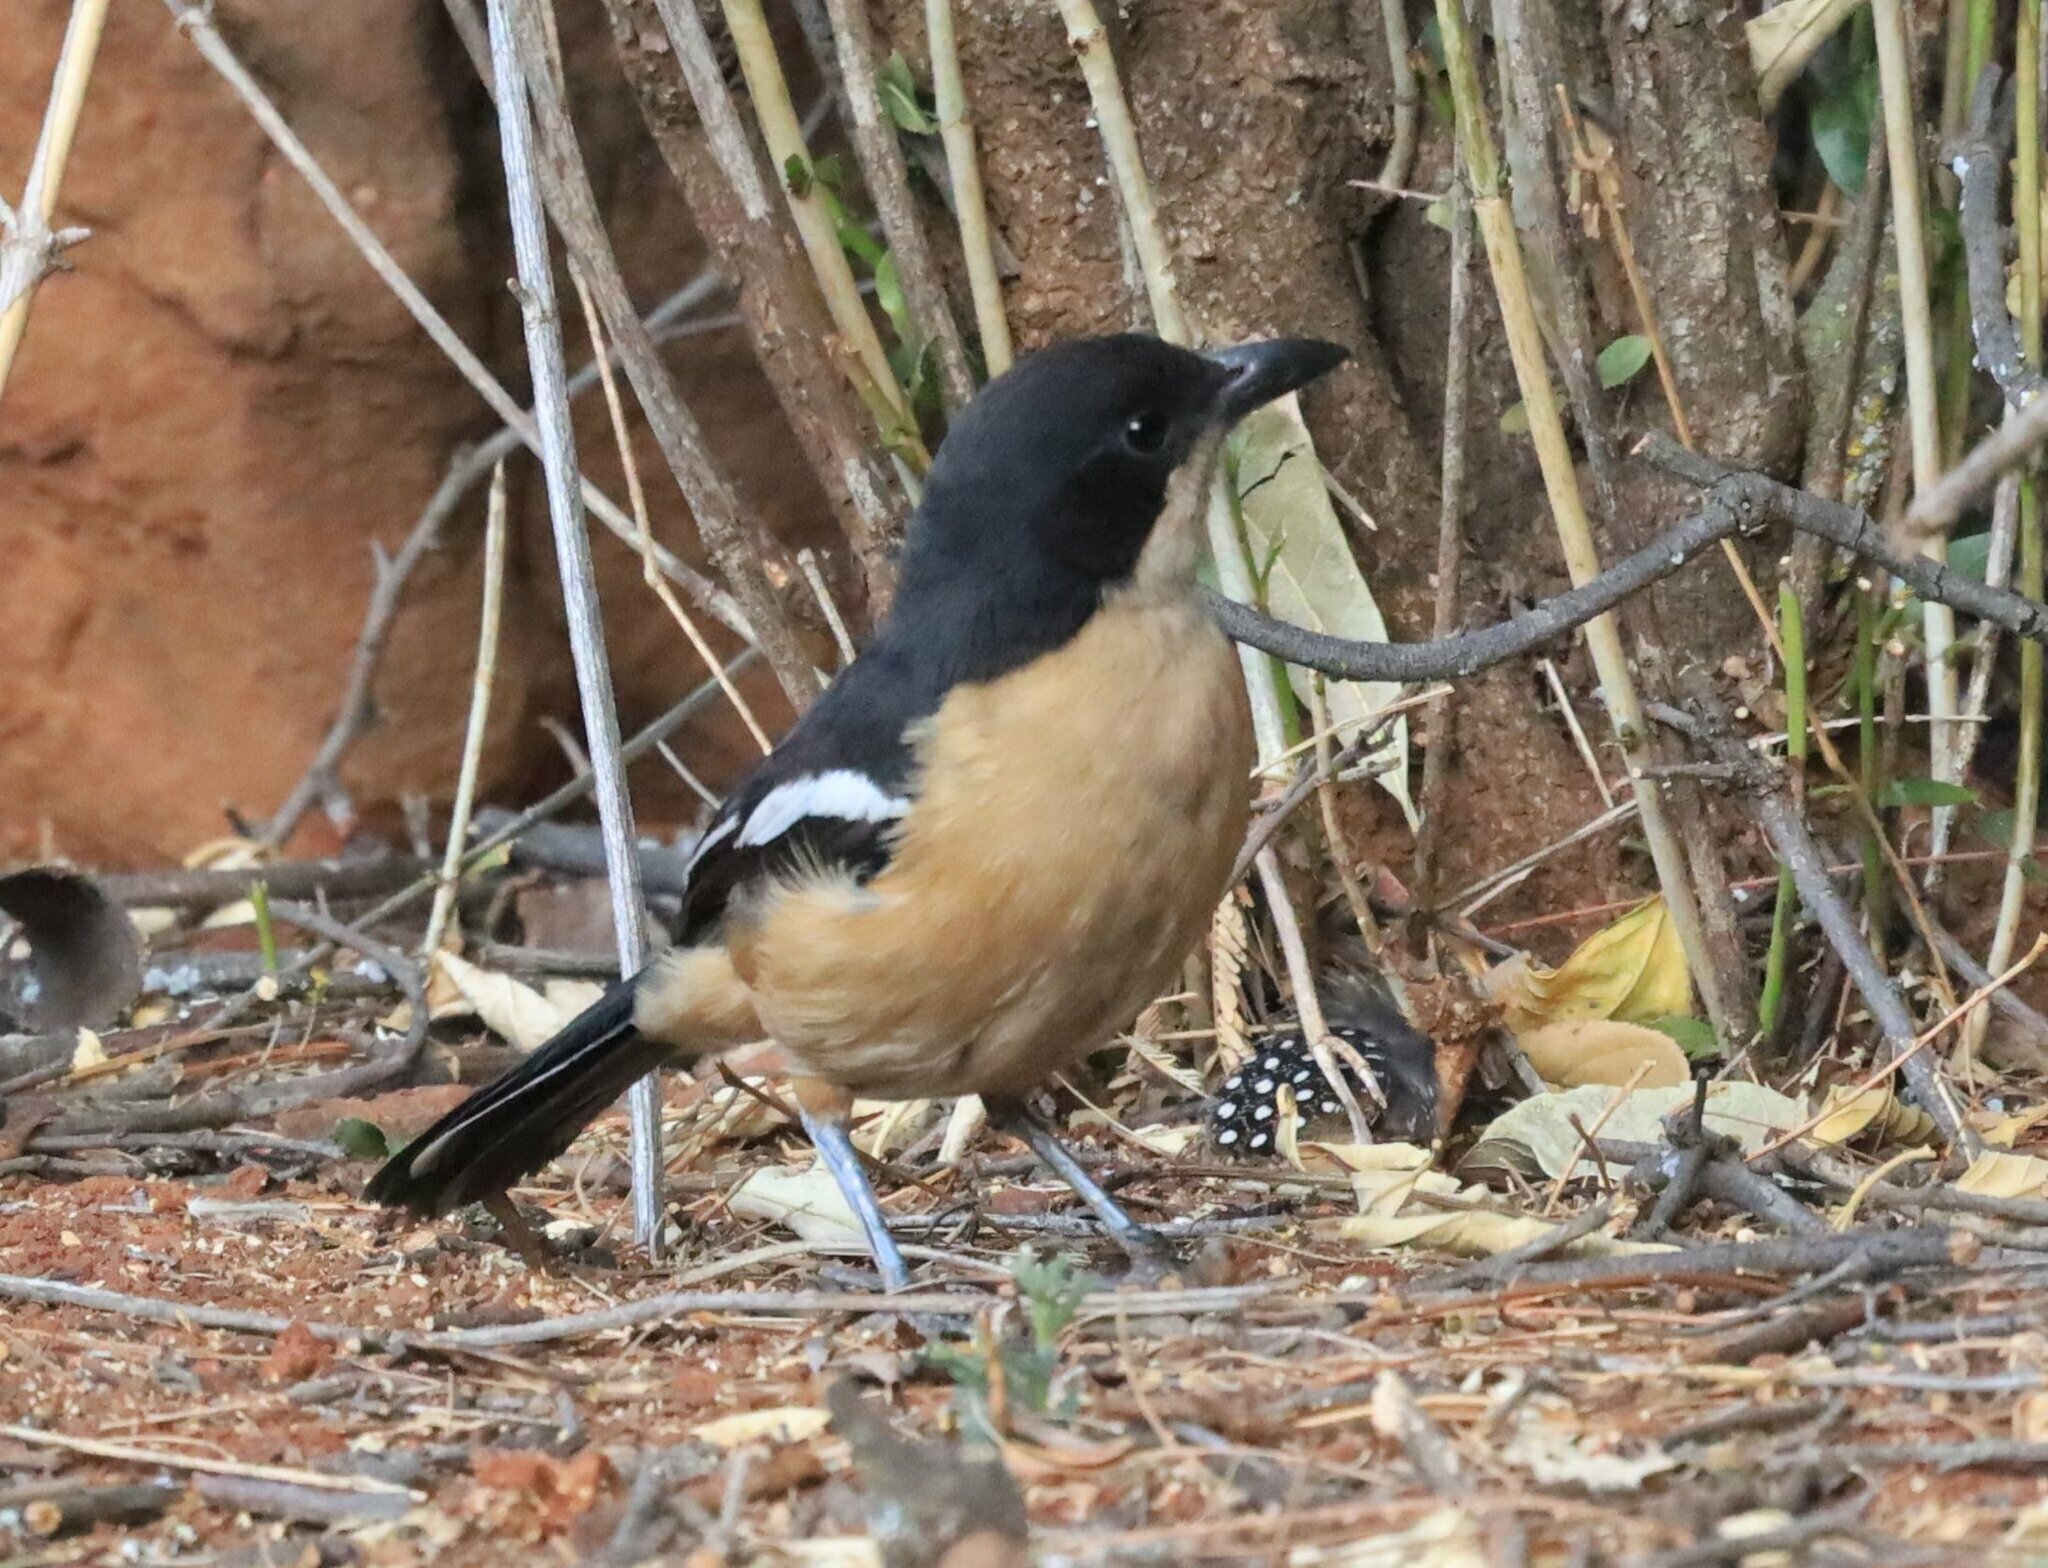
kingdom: Animalia
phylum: Chordata
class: Aves
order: Passeriformes
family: Malaconotidae
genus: Laniarius
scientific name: Laniarius ferrugineus
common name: Southern boubou
